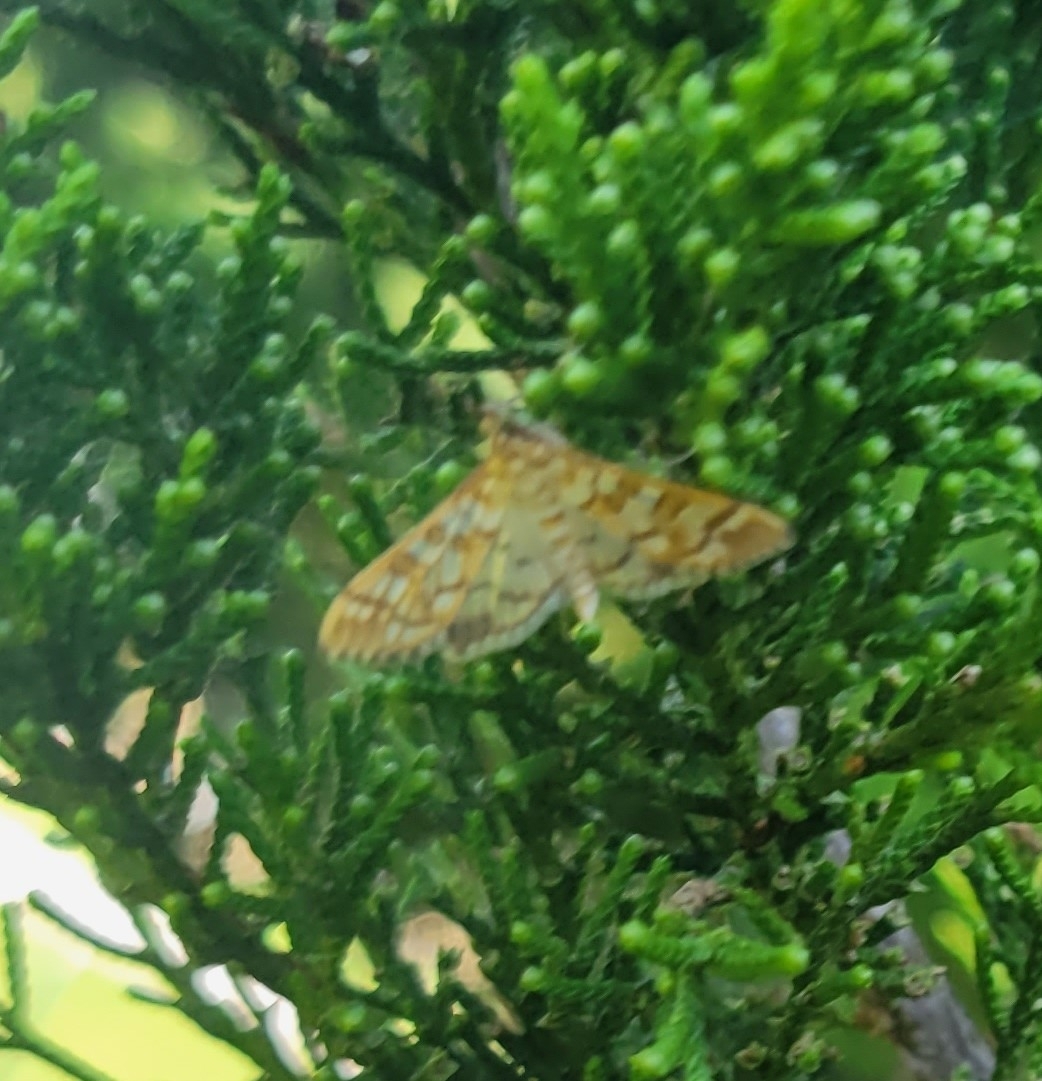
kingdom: Animalia
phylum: Arthropoda
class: Insecta
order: Lepidoptera
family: Crambidae
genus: Epipagis
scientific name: Epipagis fenestralis
